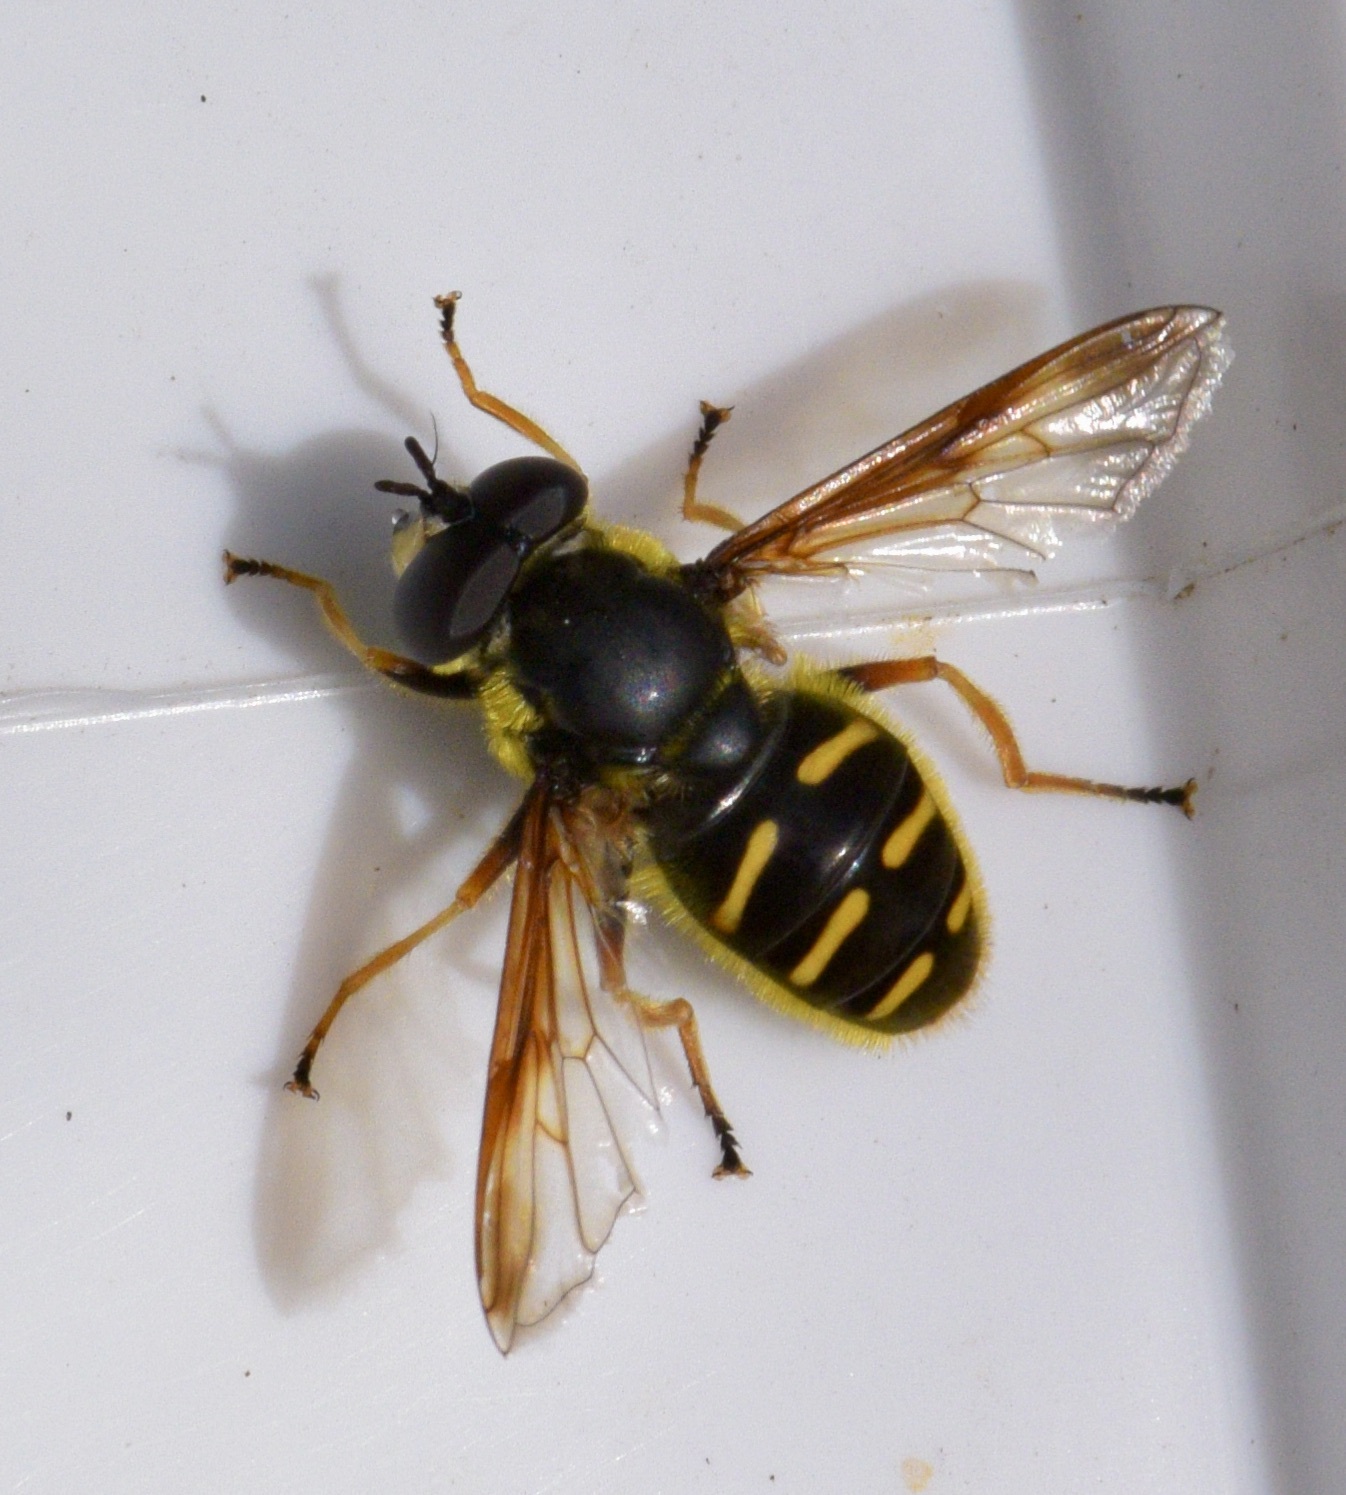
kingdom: Animalia
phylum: Arthropoda
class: Insecta
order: Diptera
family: Syrphidae
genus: Sericomyia
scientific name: Sericomyia chrysotoxoides
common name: Oblique-banded pond fly
